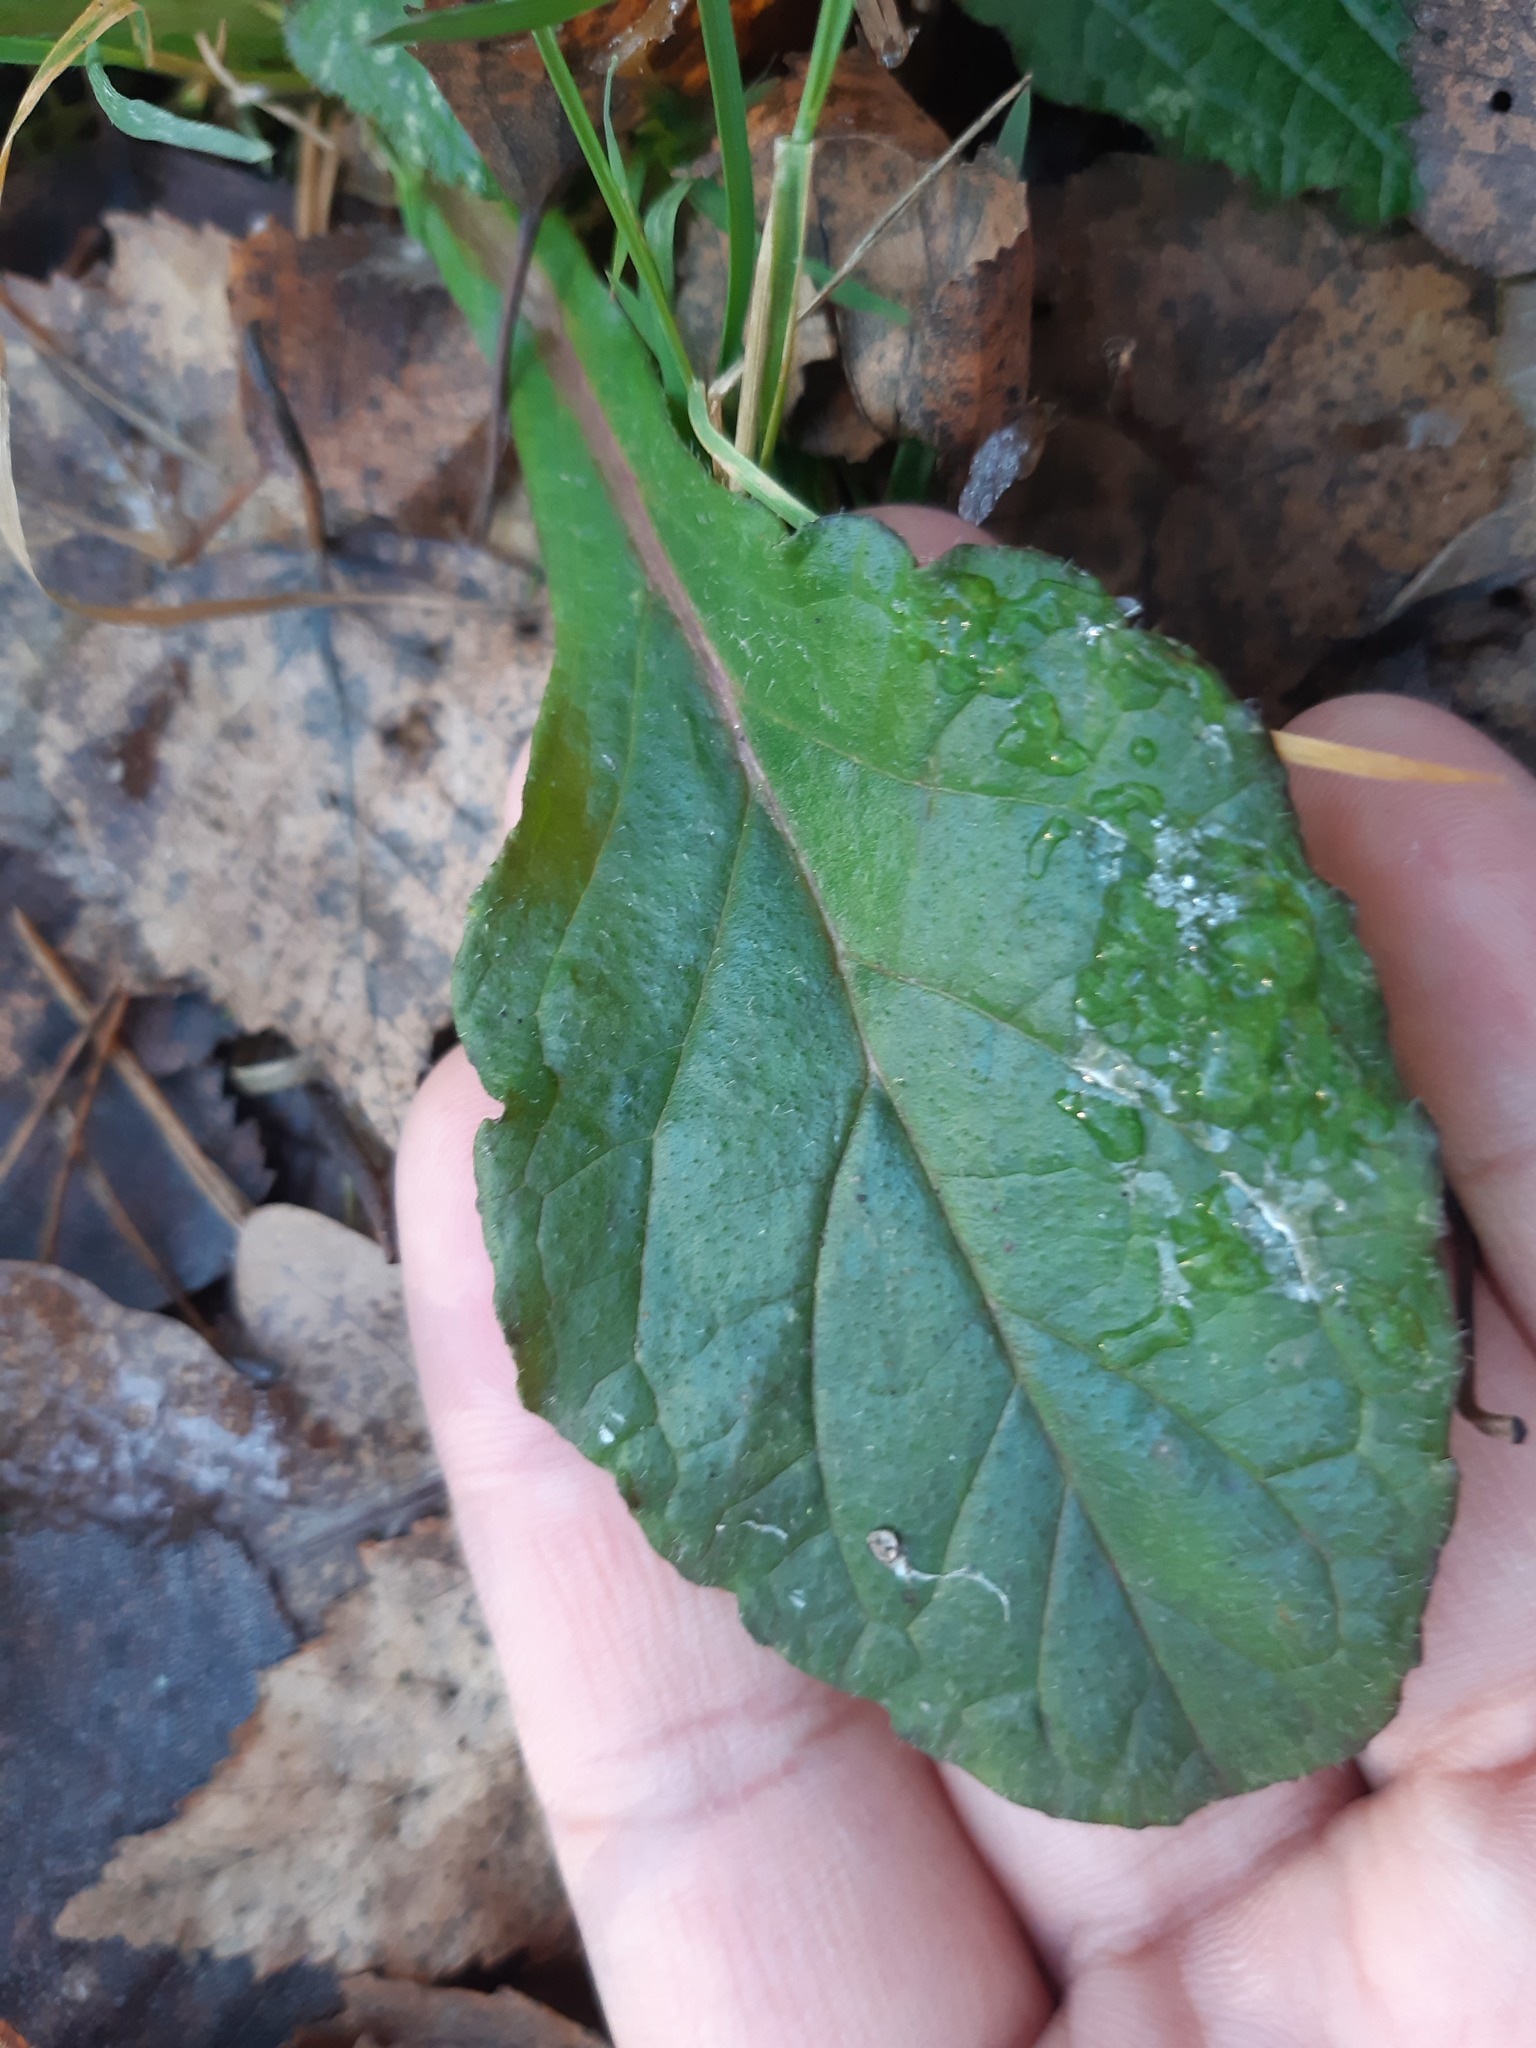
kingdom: Plantae
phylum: Tracheophyta
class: Magnoliopsida
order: Lamiales
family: Lamiaceae
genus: Ajuga
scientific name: Ajuga reptans
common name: Bugle
